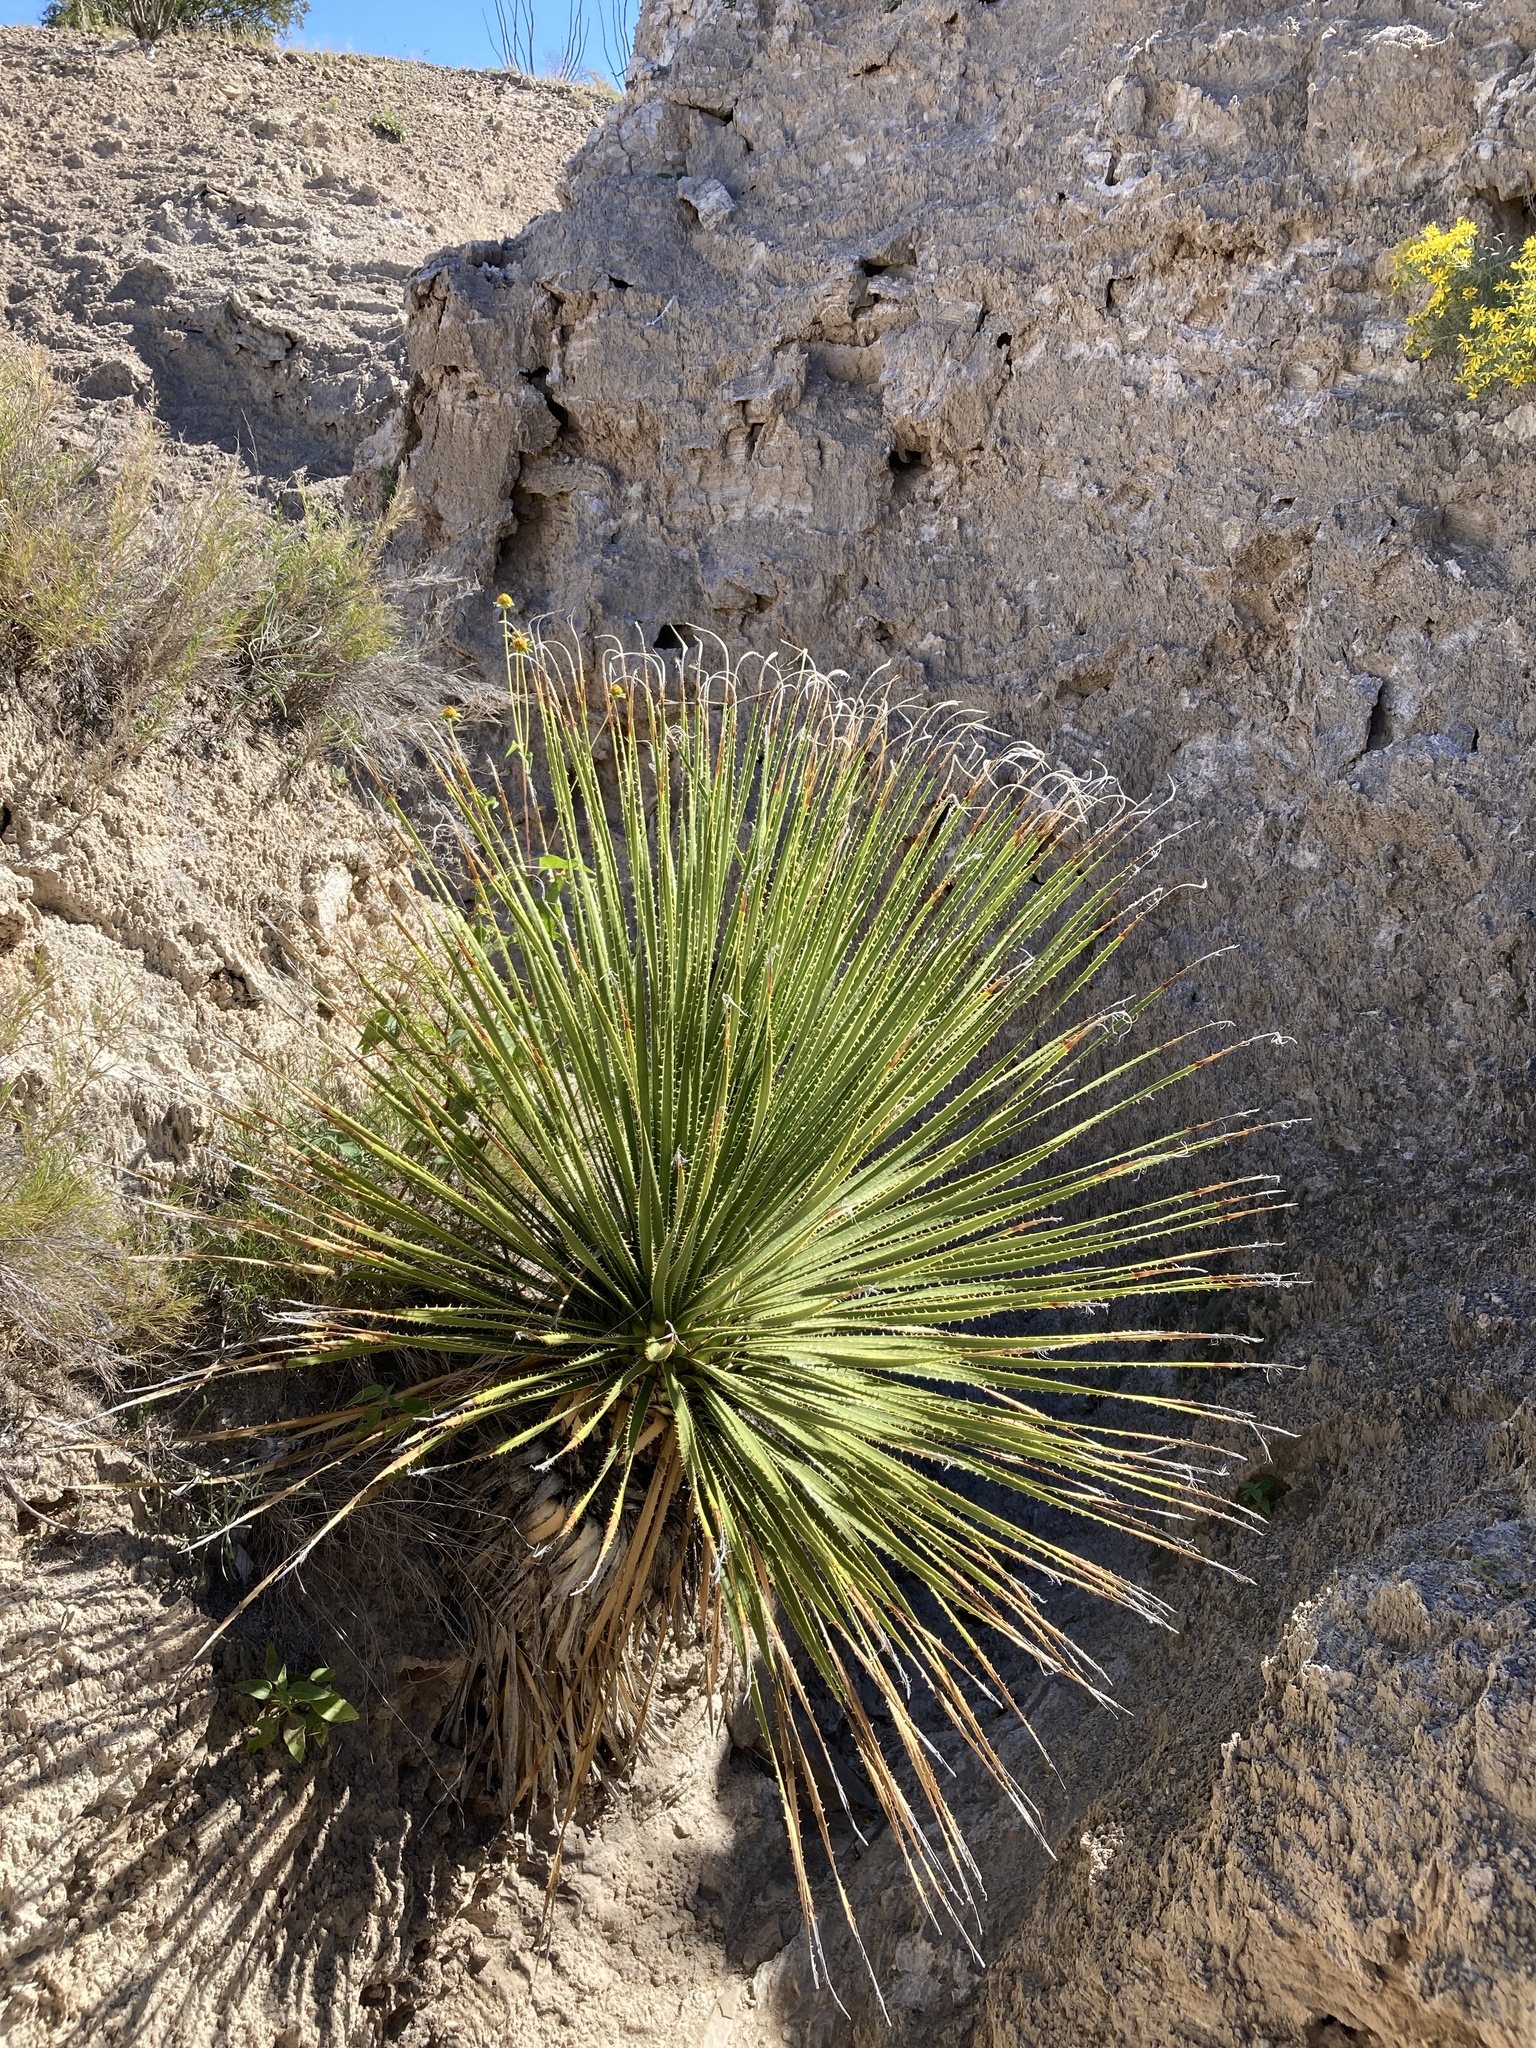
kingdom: Plantae
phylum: Tracheophyta
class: Liliopsida
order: Asparagales
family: Asparagaceae
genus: Dasylirion
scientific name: Dasylirion leiophyllum
